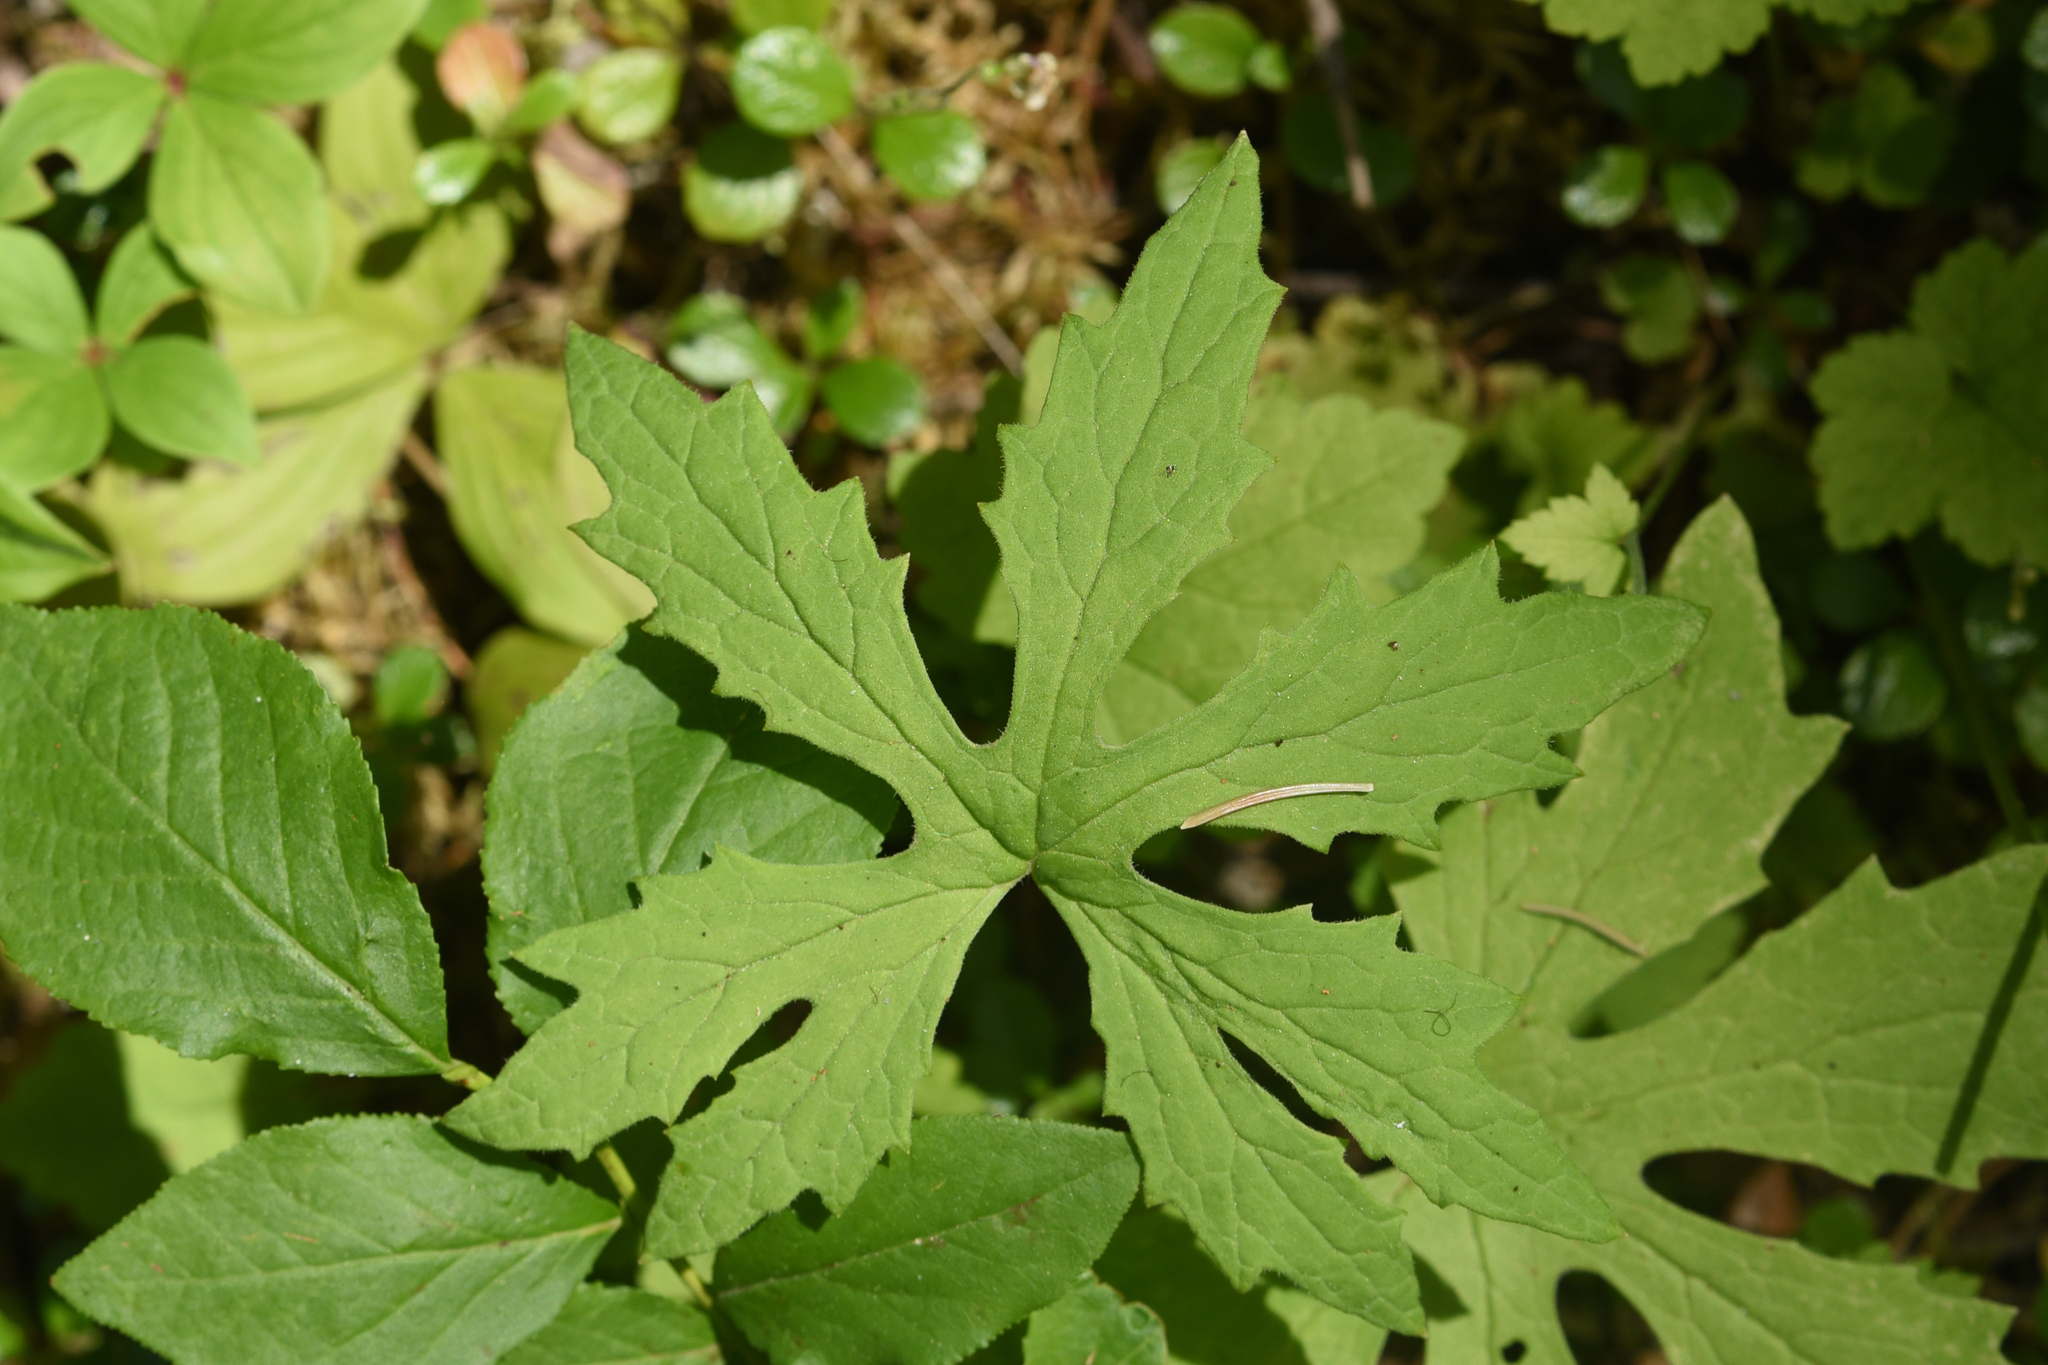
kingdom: Plantae
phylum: Tracheophyta
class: Magnoliopsida
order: Asterales
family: Asteraceae
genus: Petasites
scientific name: Petasites frigidus
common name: Arctic butterbur
